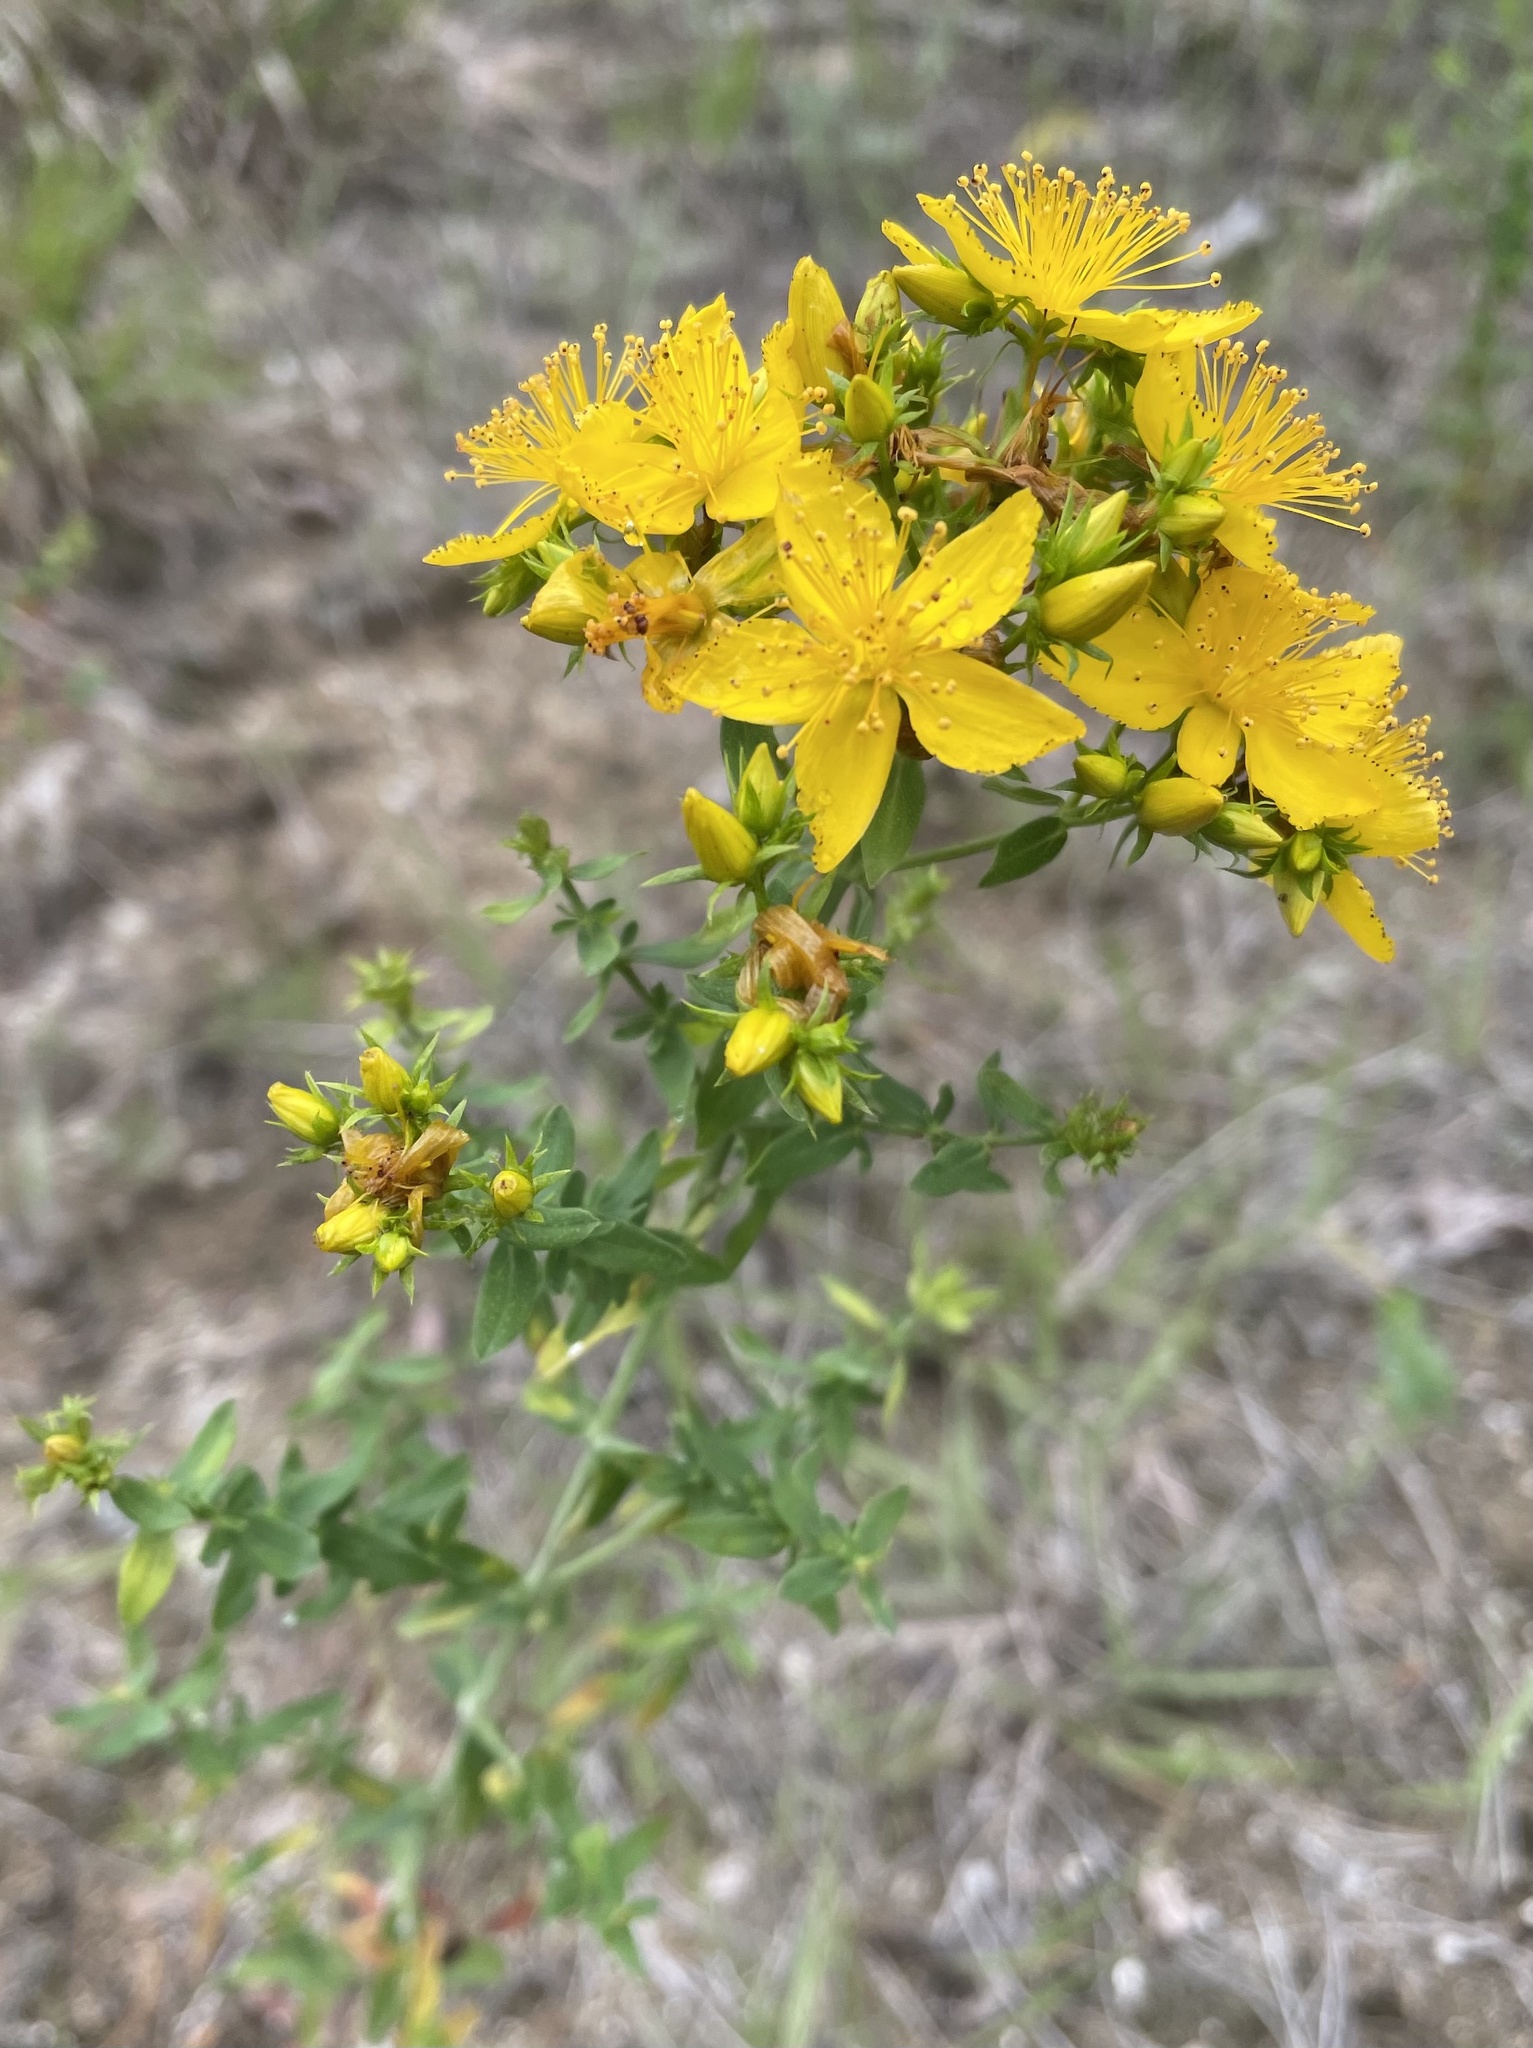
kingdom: Plantae
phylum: Tracheophyta
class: Magnoliopsida
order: Malpighiales
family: Hypericaceae
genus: Hypericum
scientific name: Hypericum perforatum
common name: Common st. johnswort
